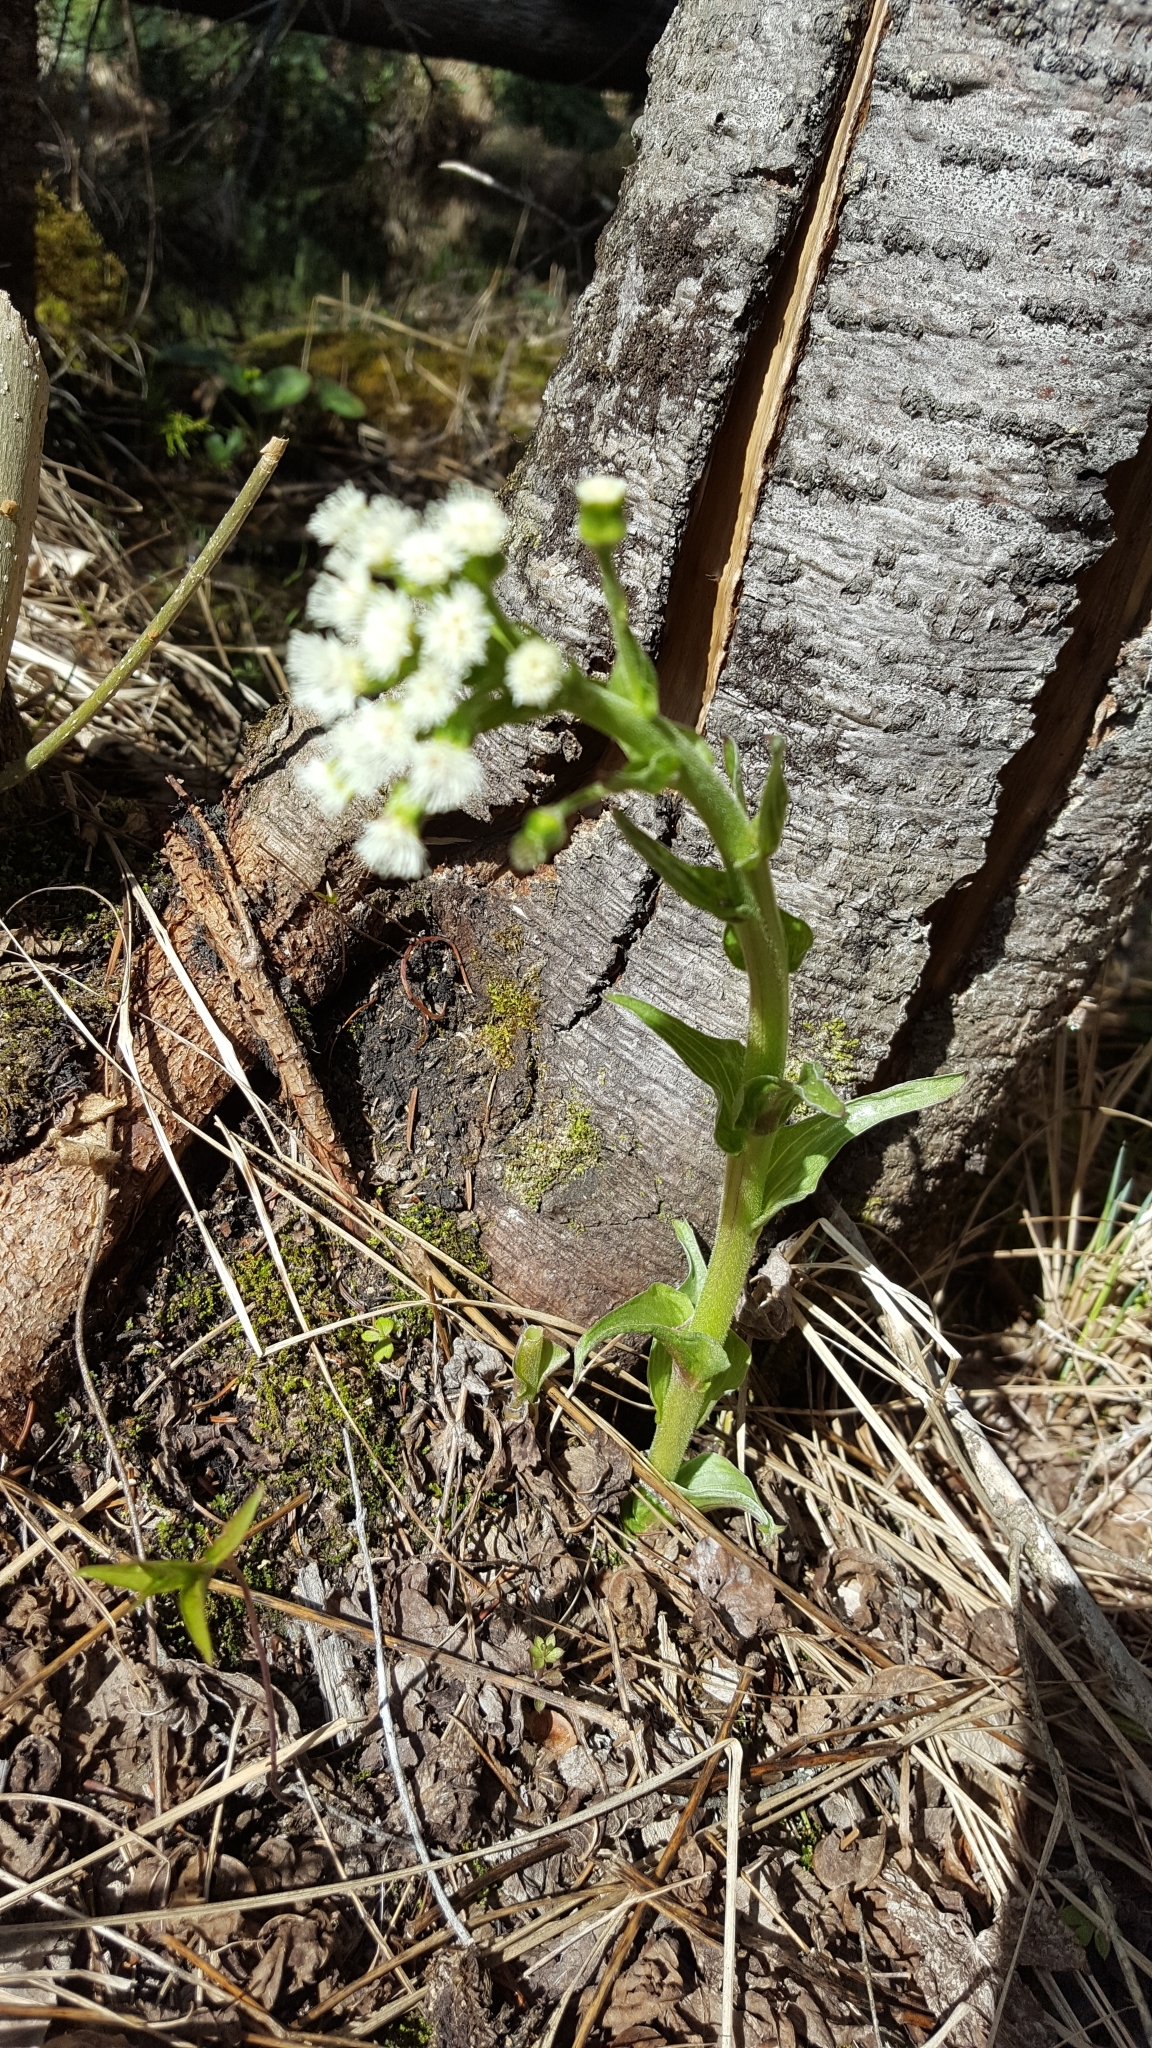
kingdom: Plantae
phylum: Tracheophyta
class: Magnoliopsida
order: Asterales
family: Asteraceae
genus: Petasites
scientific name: Petasites frigidus
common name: Arctic butterbur
